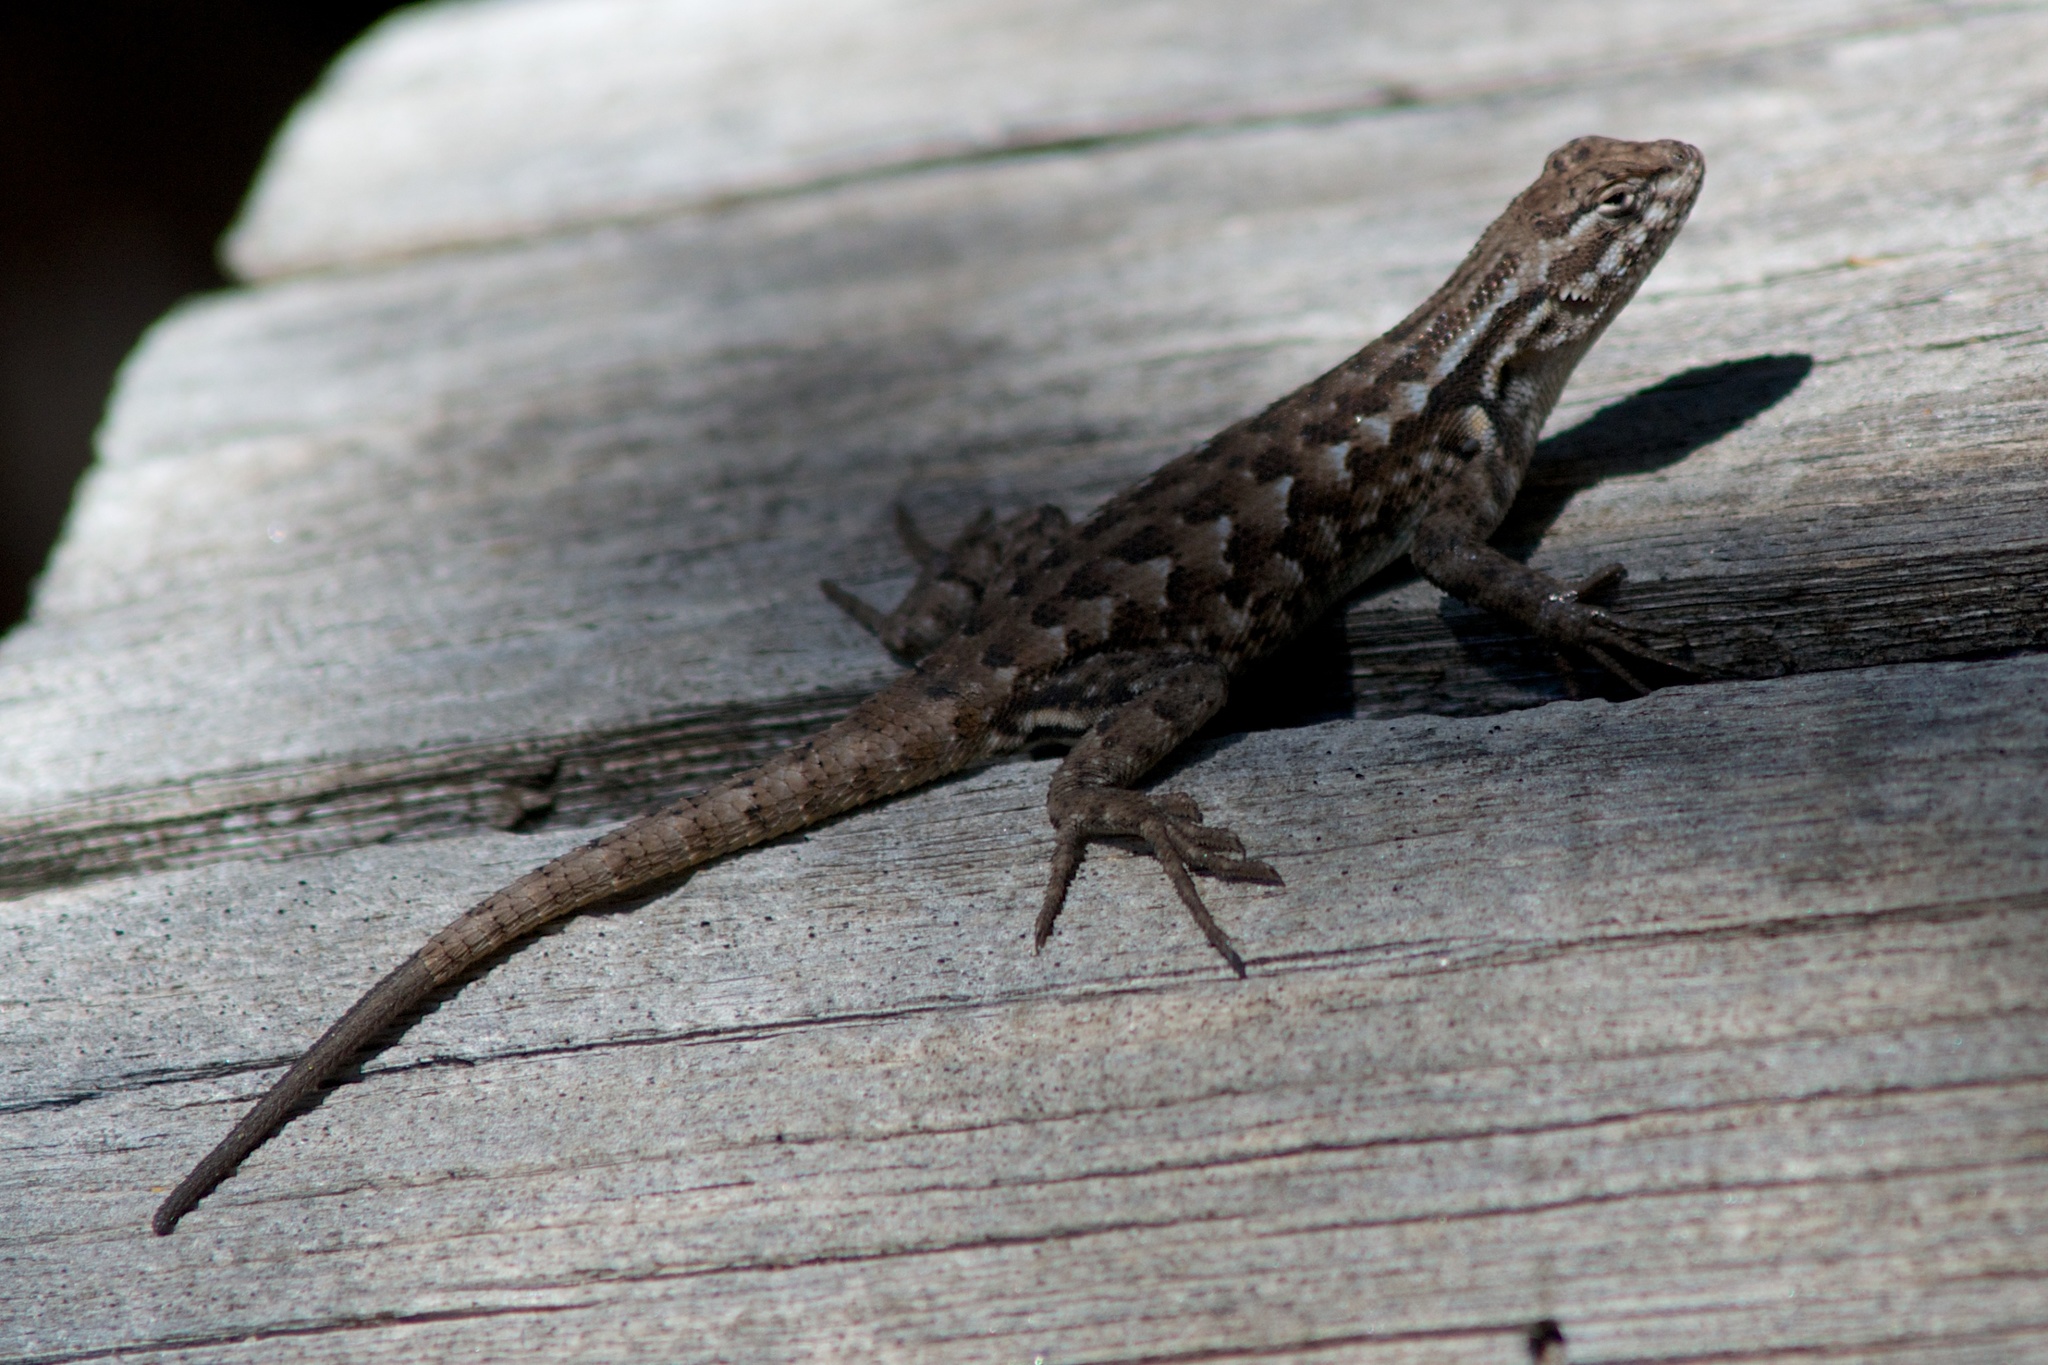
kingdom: Animalia
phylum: Chordata
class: Squamata
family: Phrynosomatidae
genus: Sceloporus
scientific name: Sceloporus graciosus
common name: Sagebrush lizard
